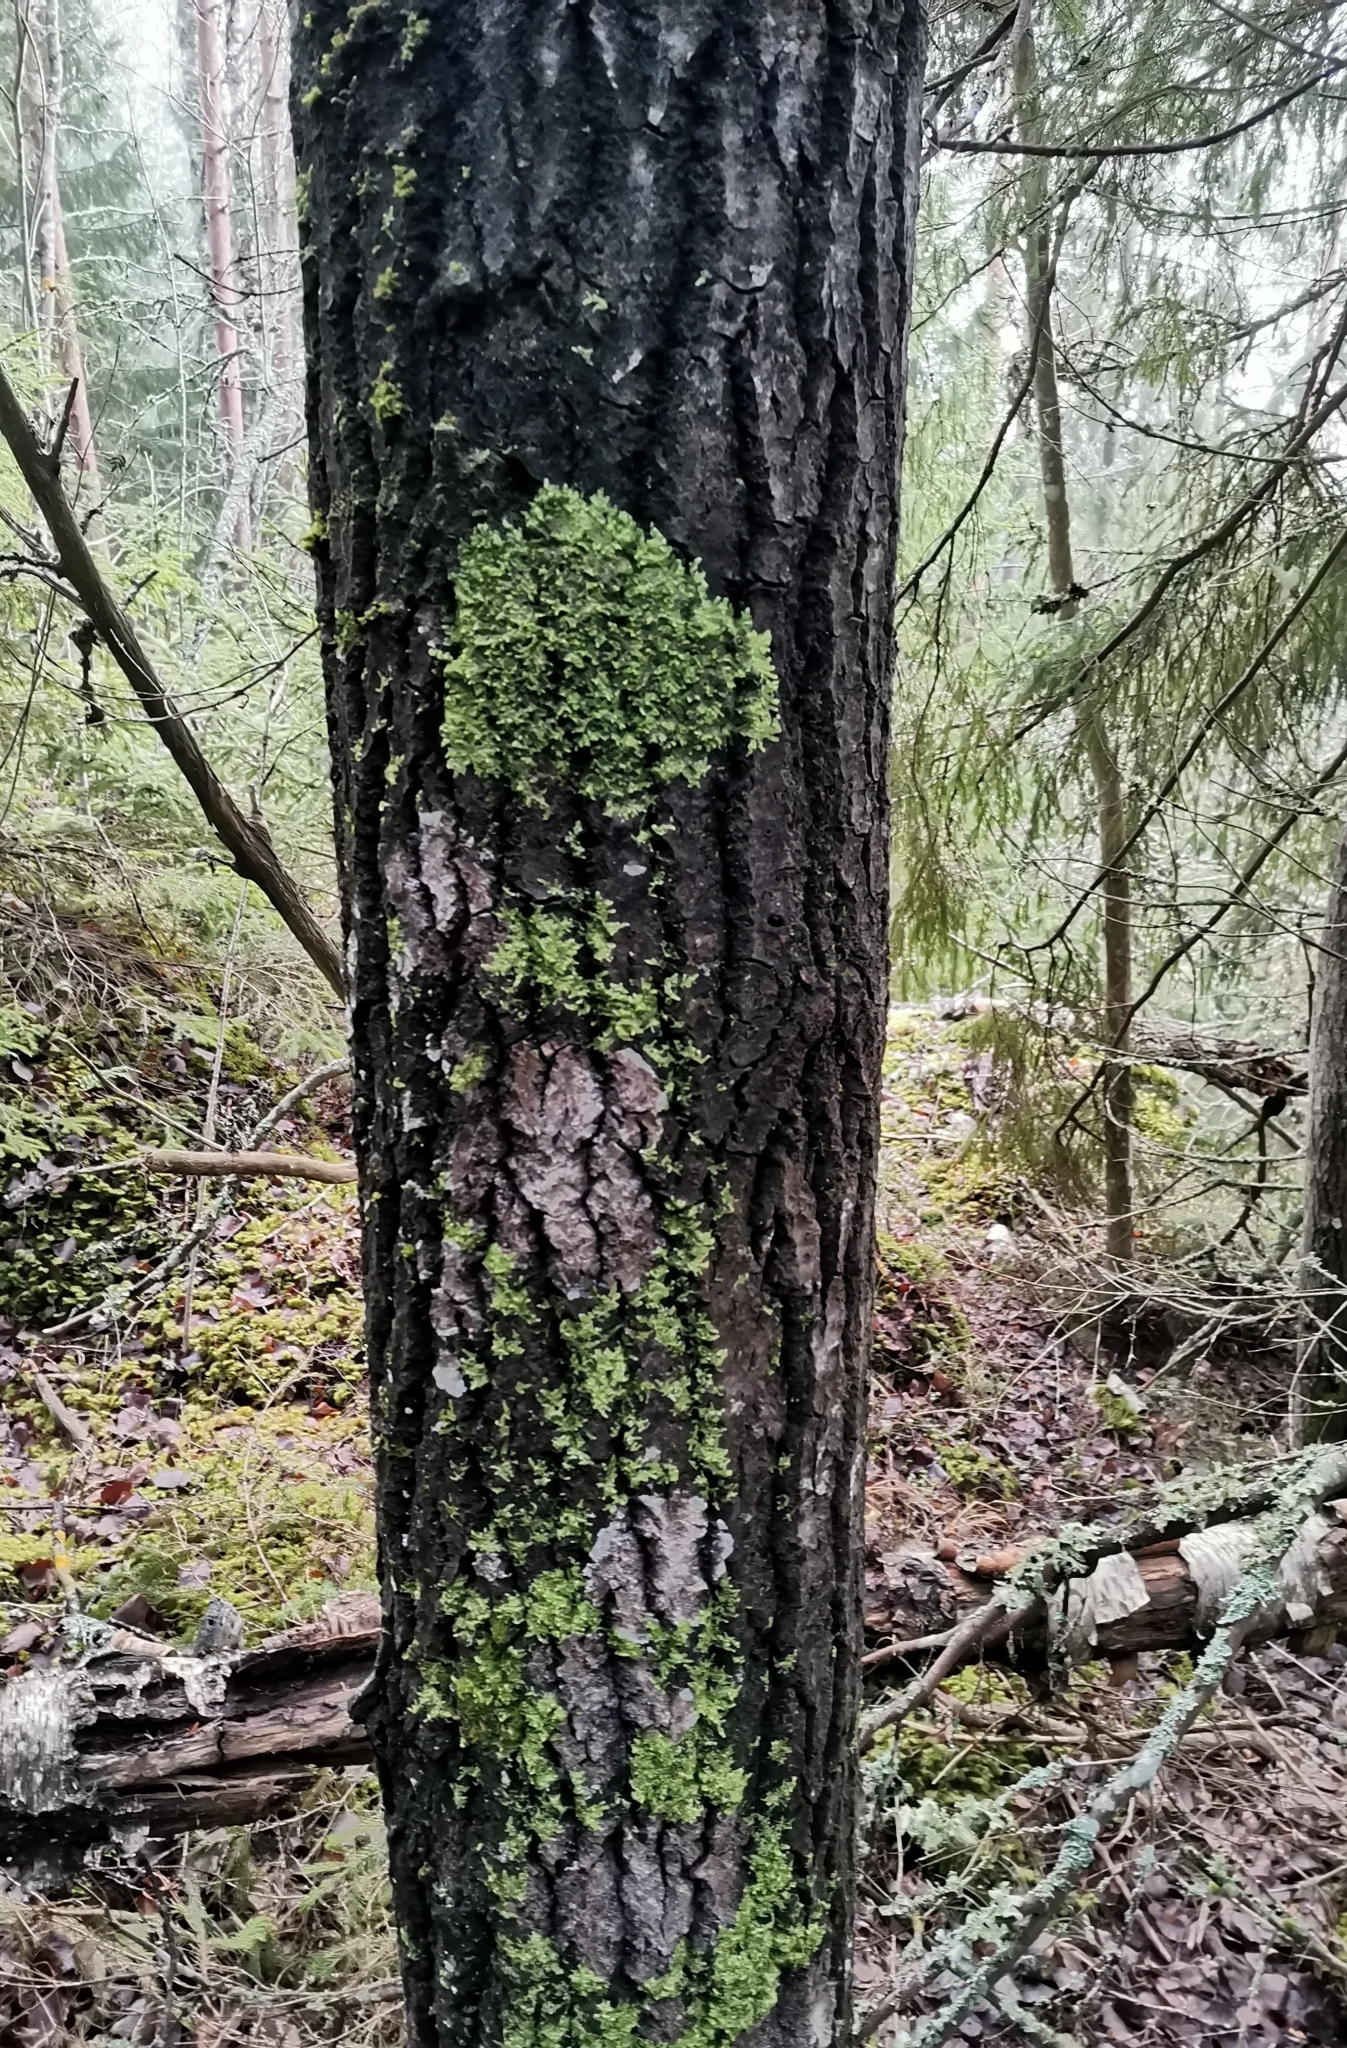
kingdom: Plantae
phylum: Marchantiophyta
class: Jungermanniopsida
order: Porellales
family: Radulaceae
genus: Radula
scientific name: Radula complanata
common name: Flat-leaved scalewort
